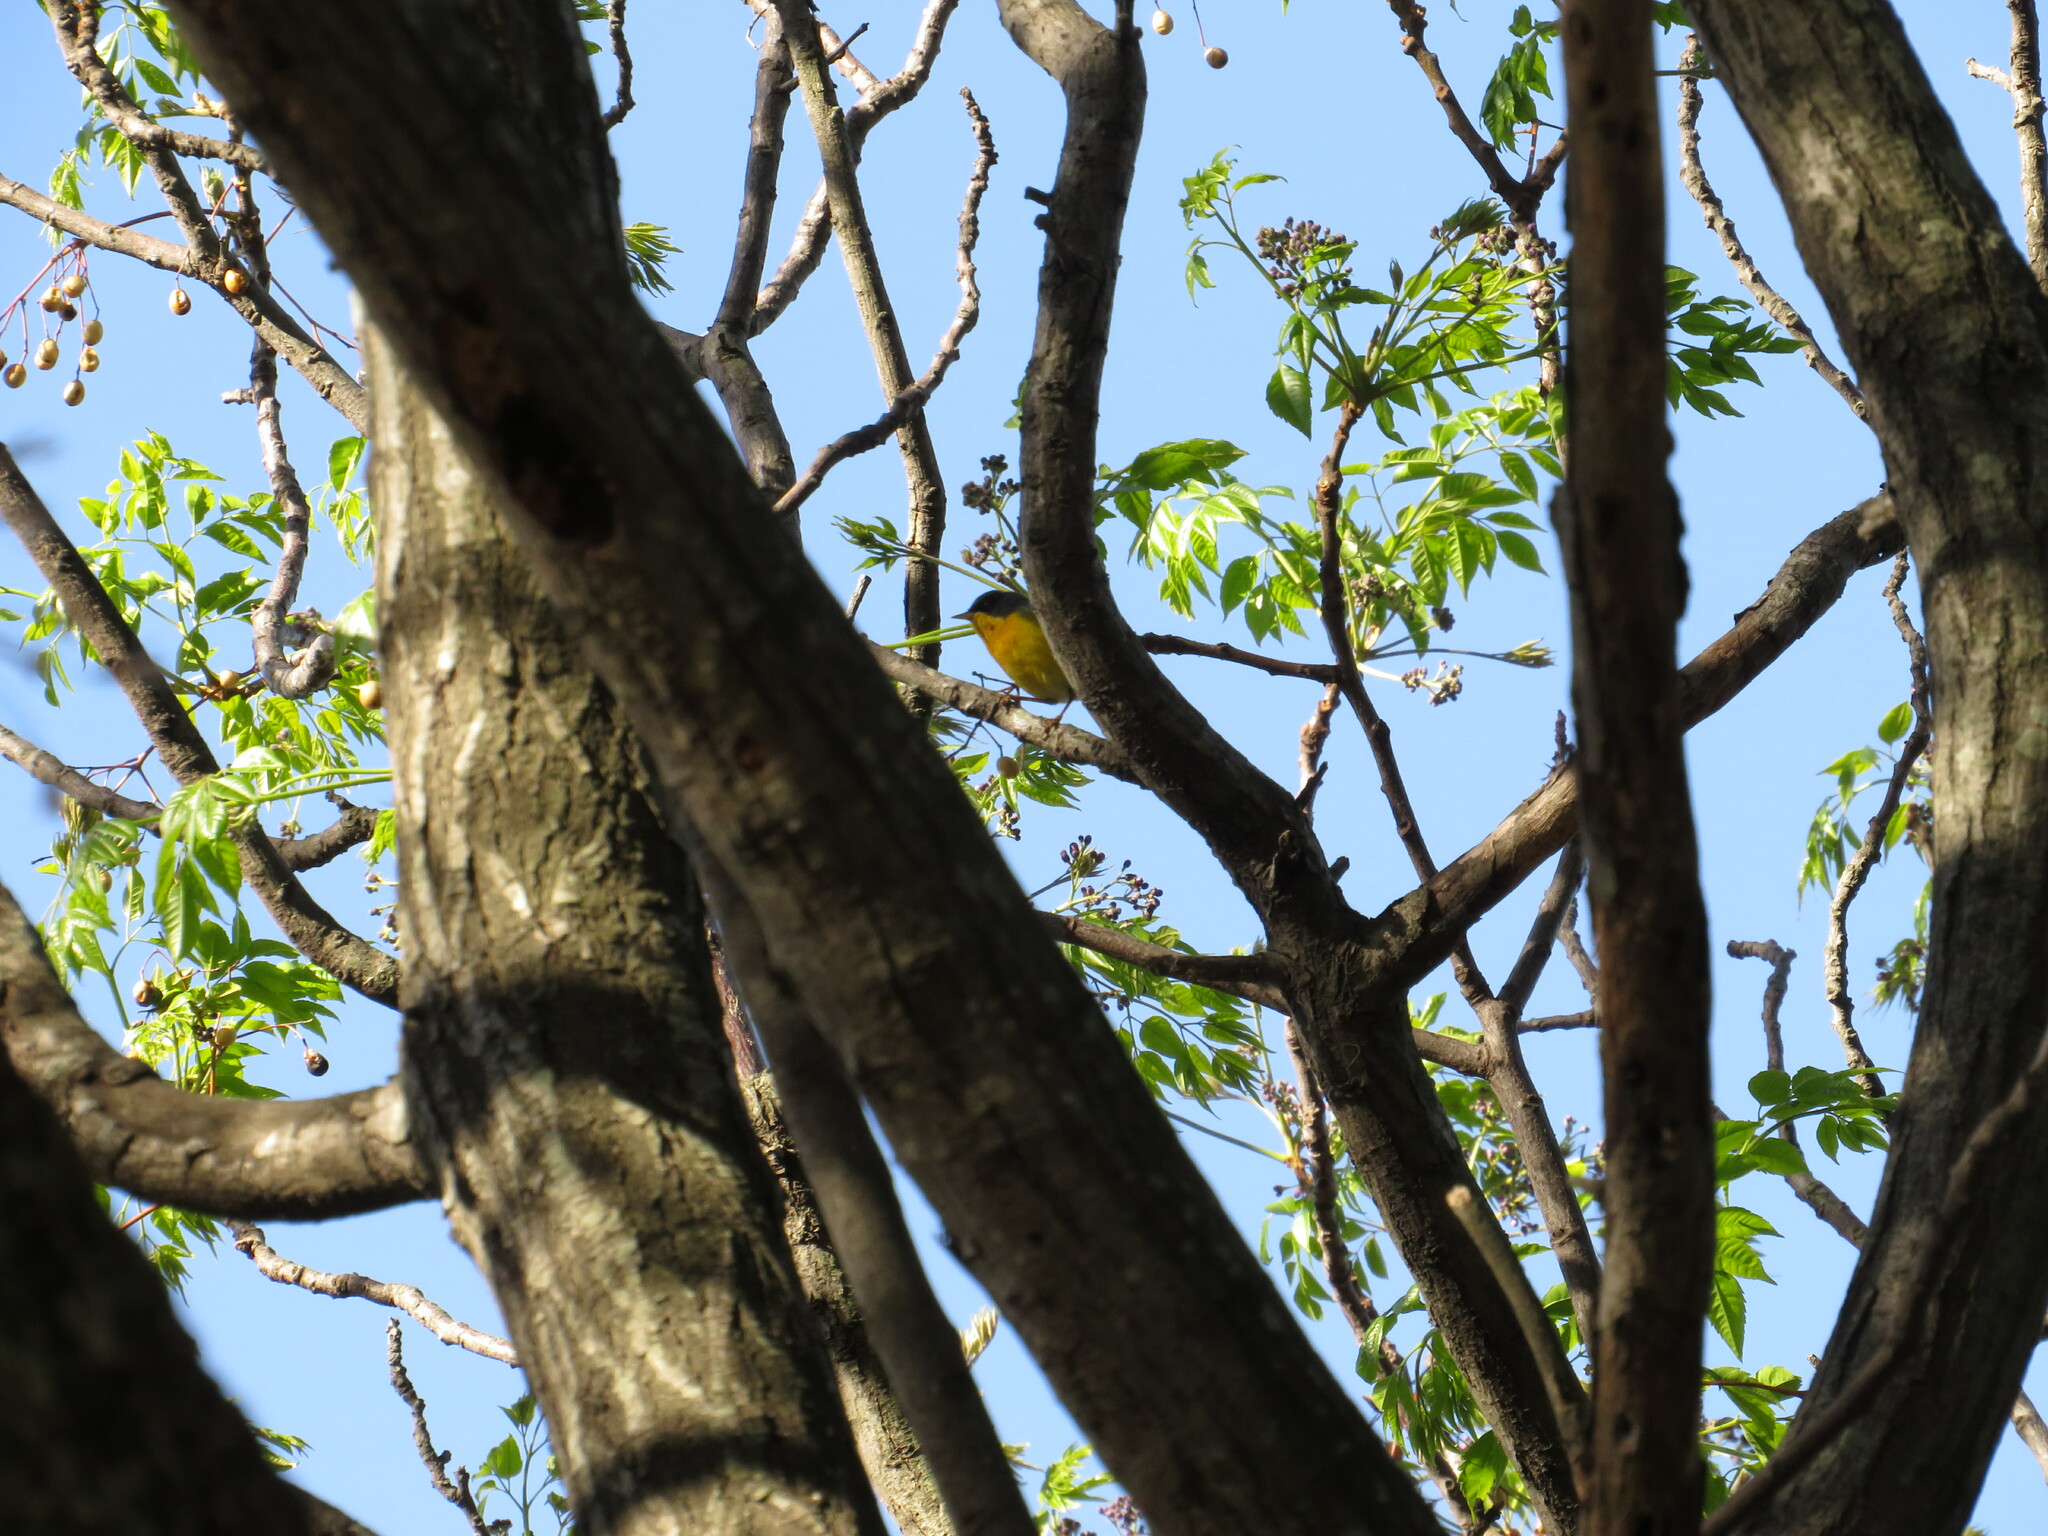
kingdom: Animalia
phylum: Chordata
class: Aves
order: Passeriformes
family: Parulidae
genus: Setophaga
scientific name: Setophaga pitiayumi
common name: Tropical parula
